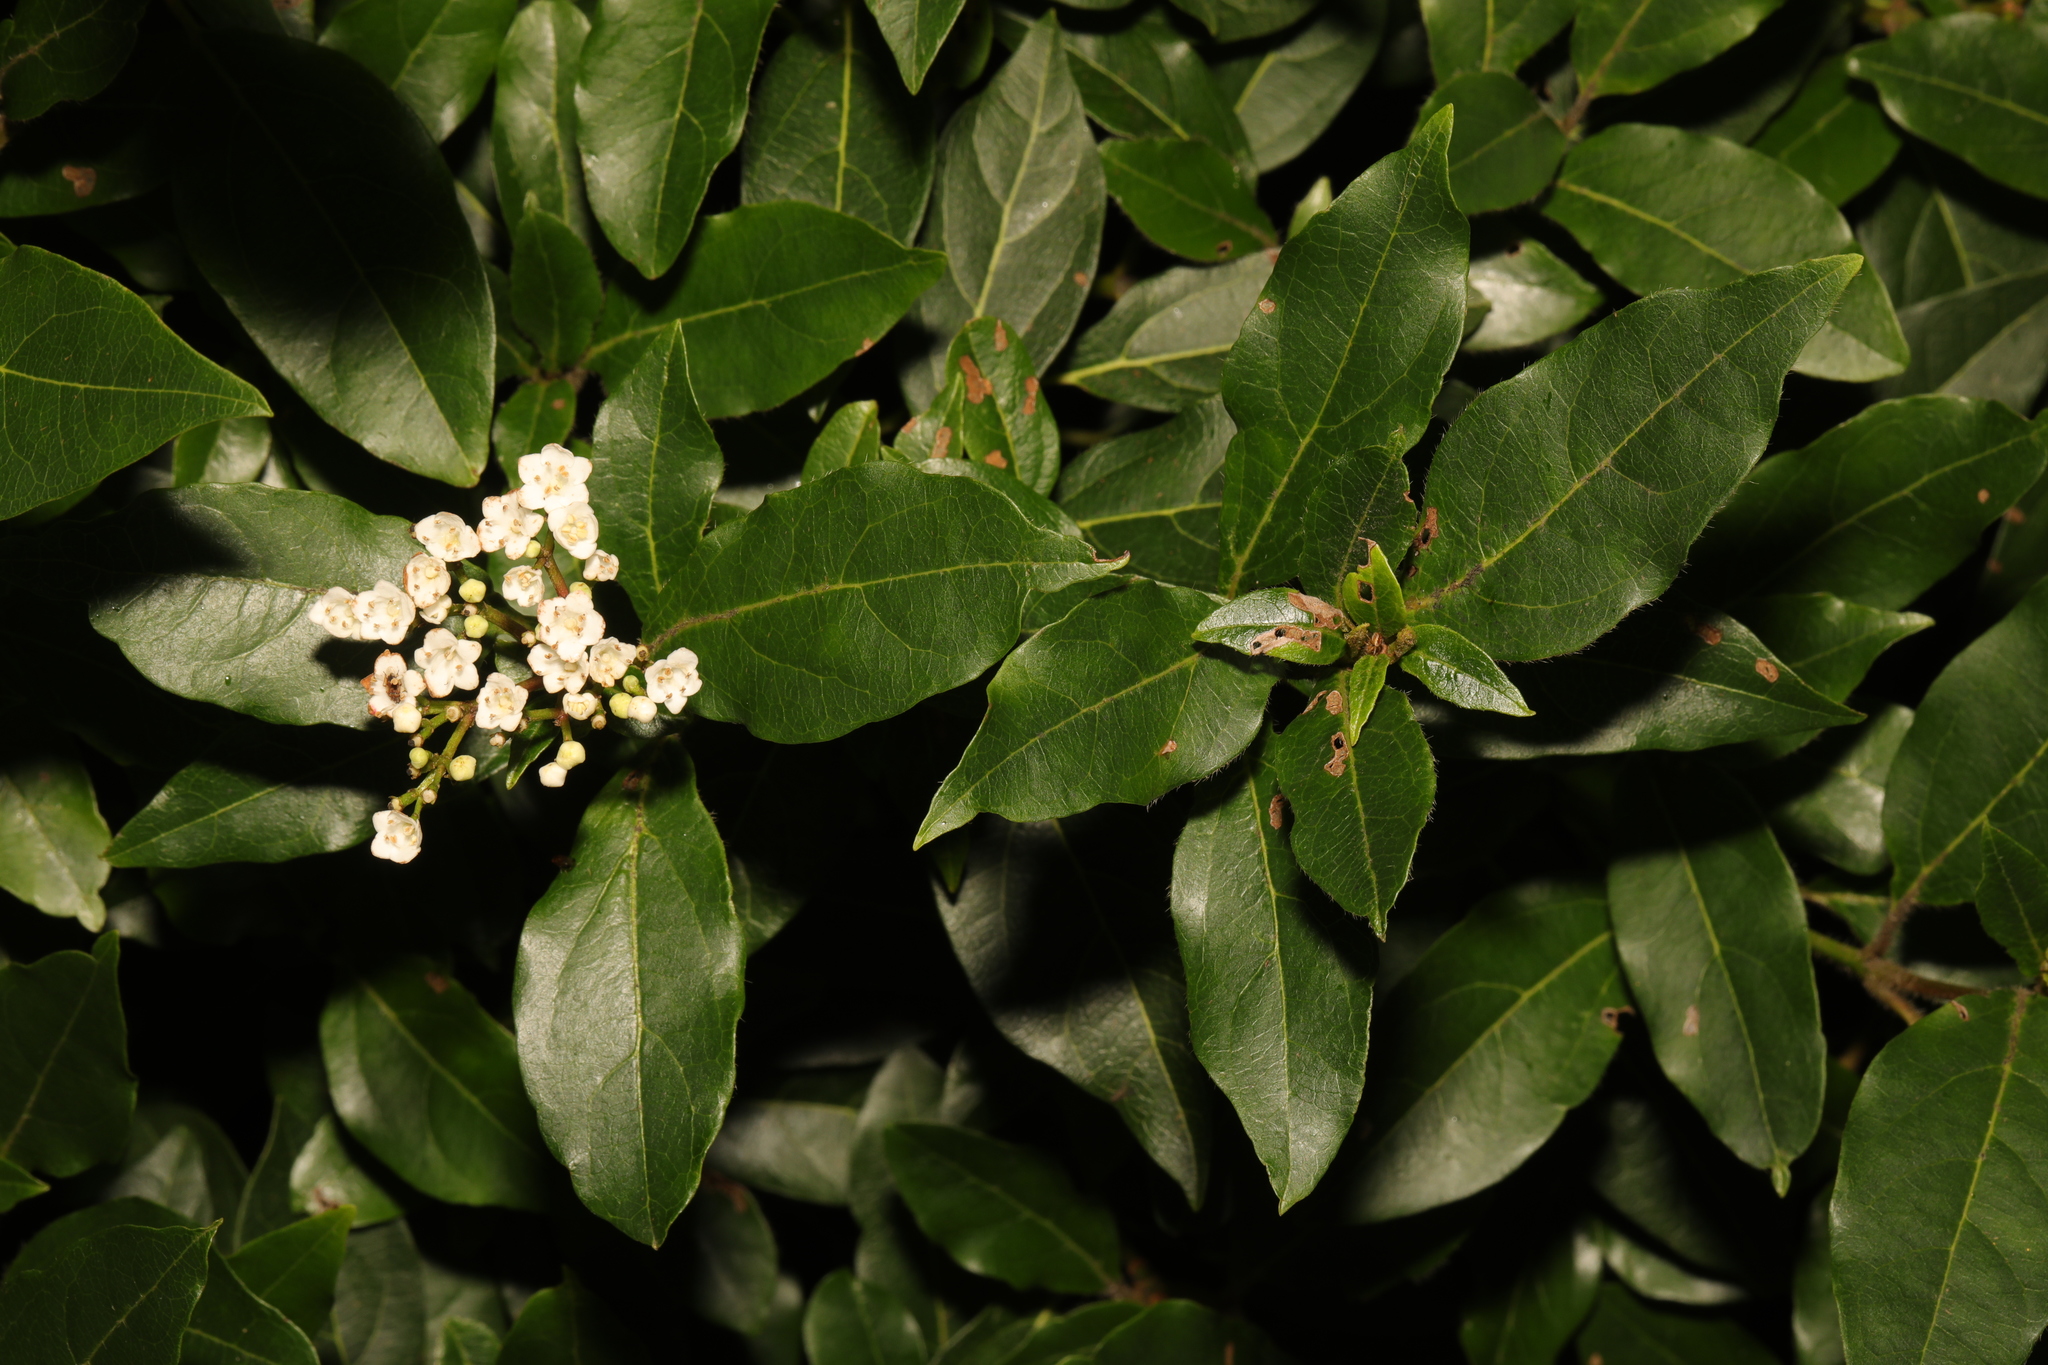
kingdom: Plantae
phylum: Tracheophyta
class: Magnoliopsida
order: Dipsacales
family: Viburnaceae
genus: Viburnum
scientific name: Viburnum tinus
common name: Laurustinus
